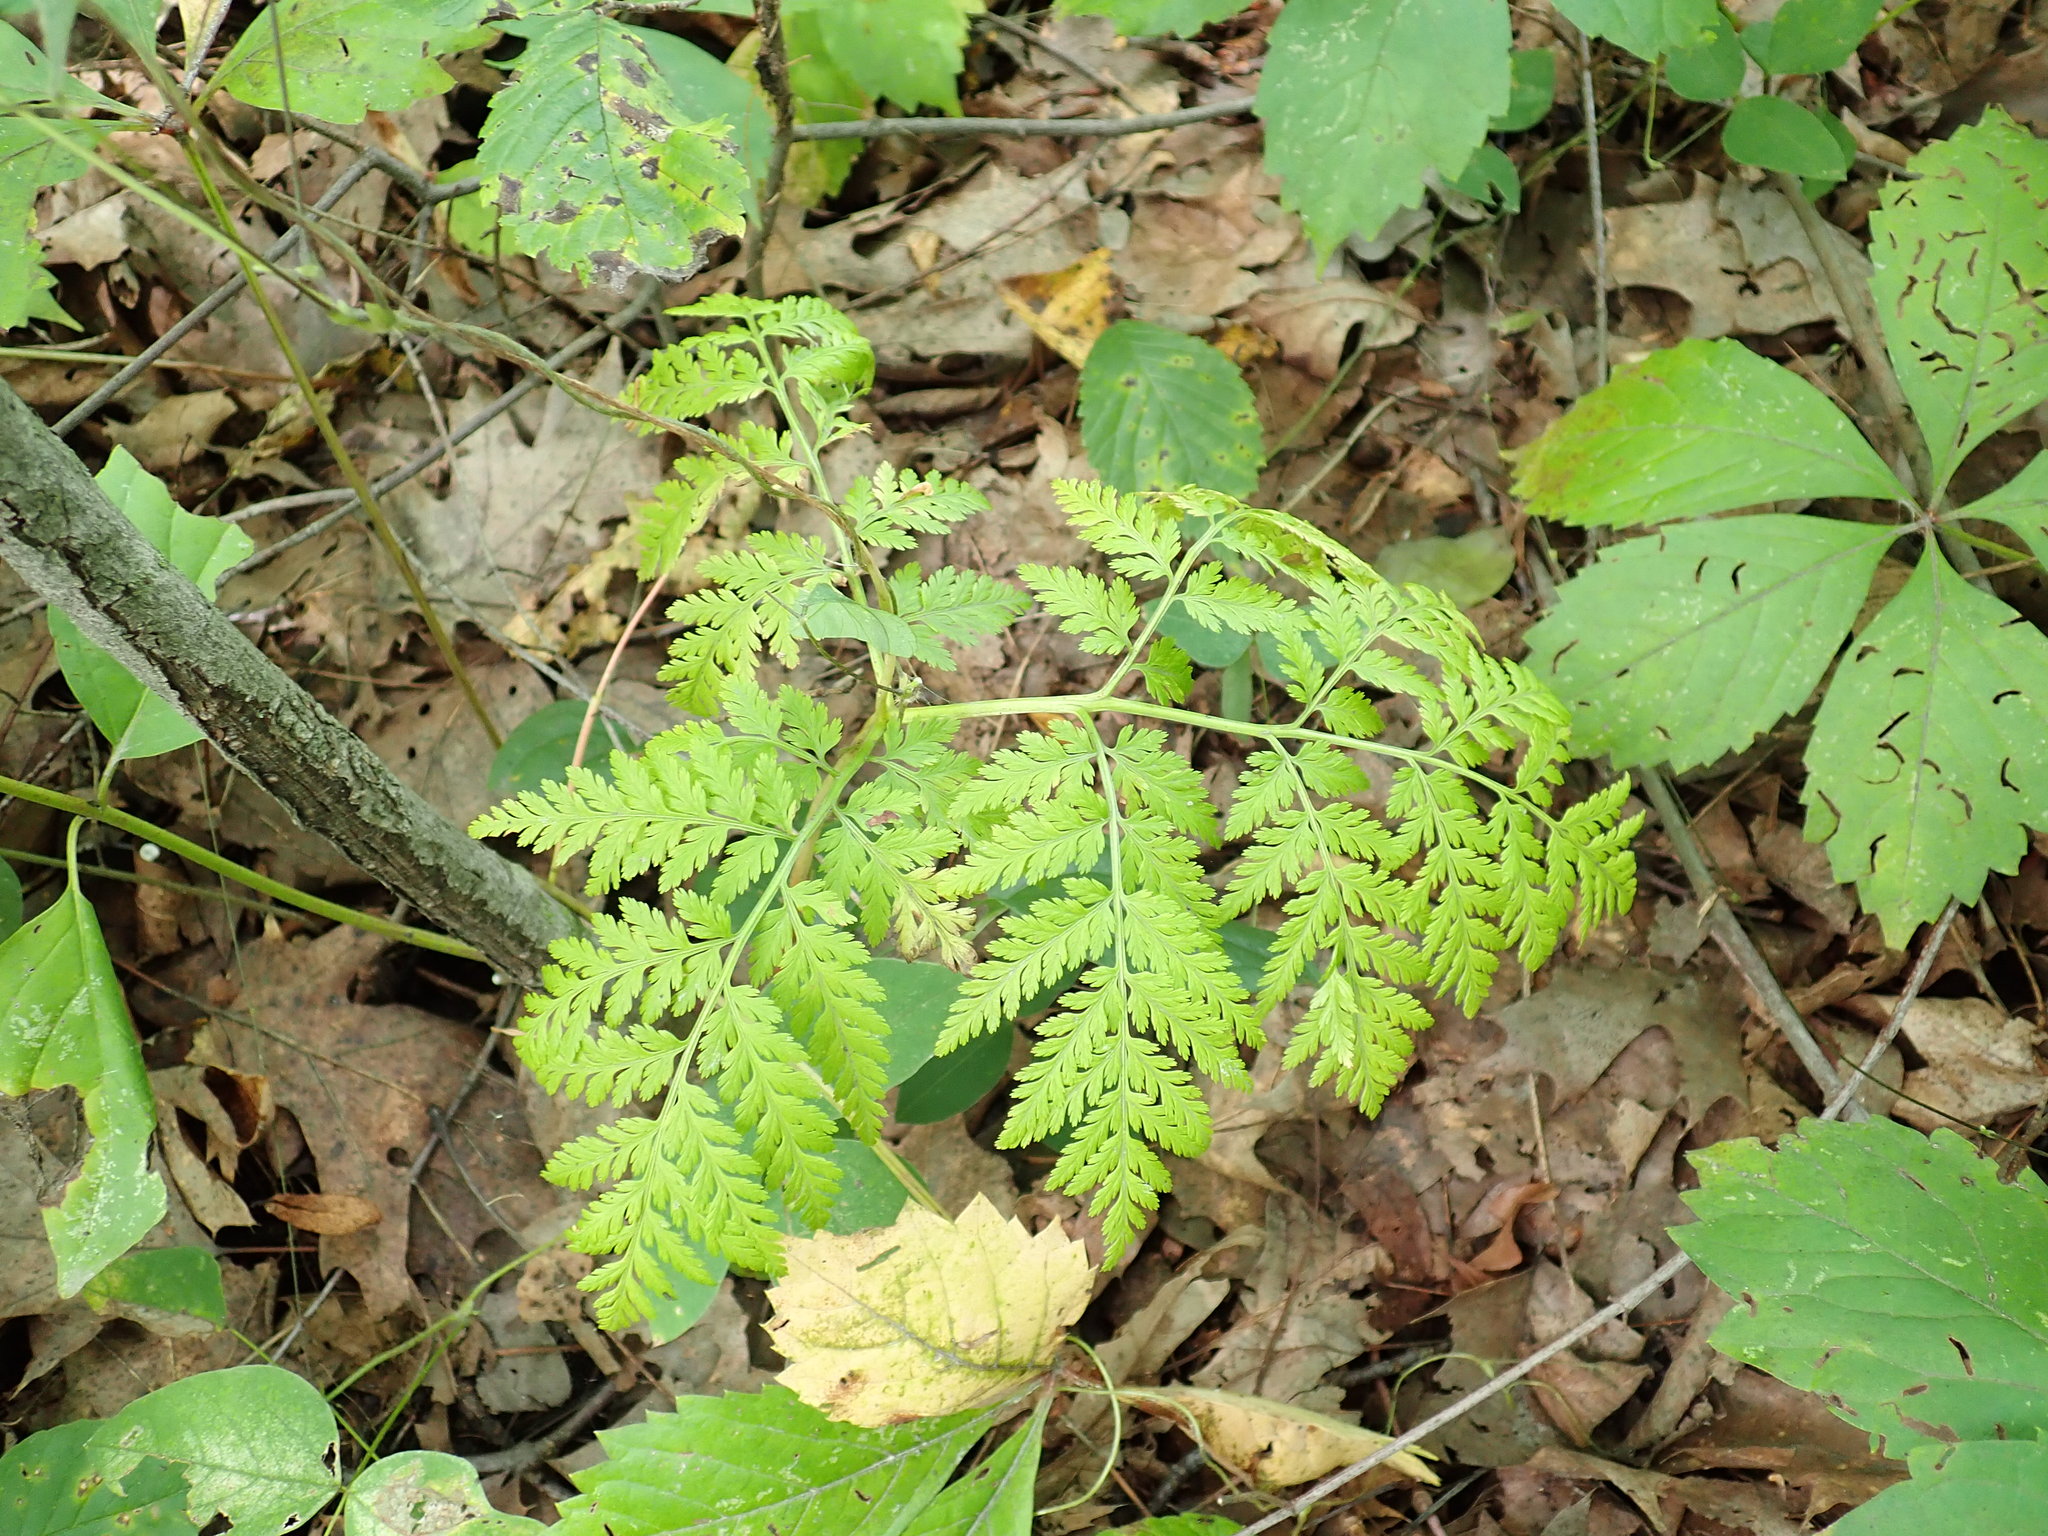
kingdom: Plantae
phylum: Tracheophyta
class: Polypodiopsida
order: Ophioglossales
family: Ophioglossaceae
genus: Botrypus
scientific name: Botrypus virginianus
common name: Common grapefern
